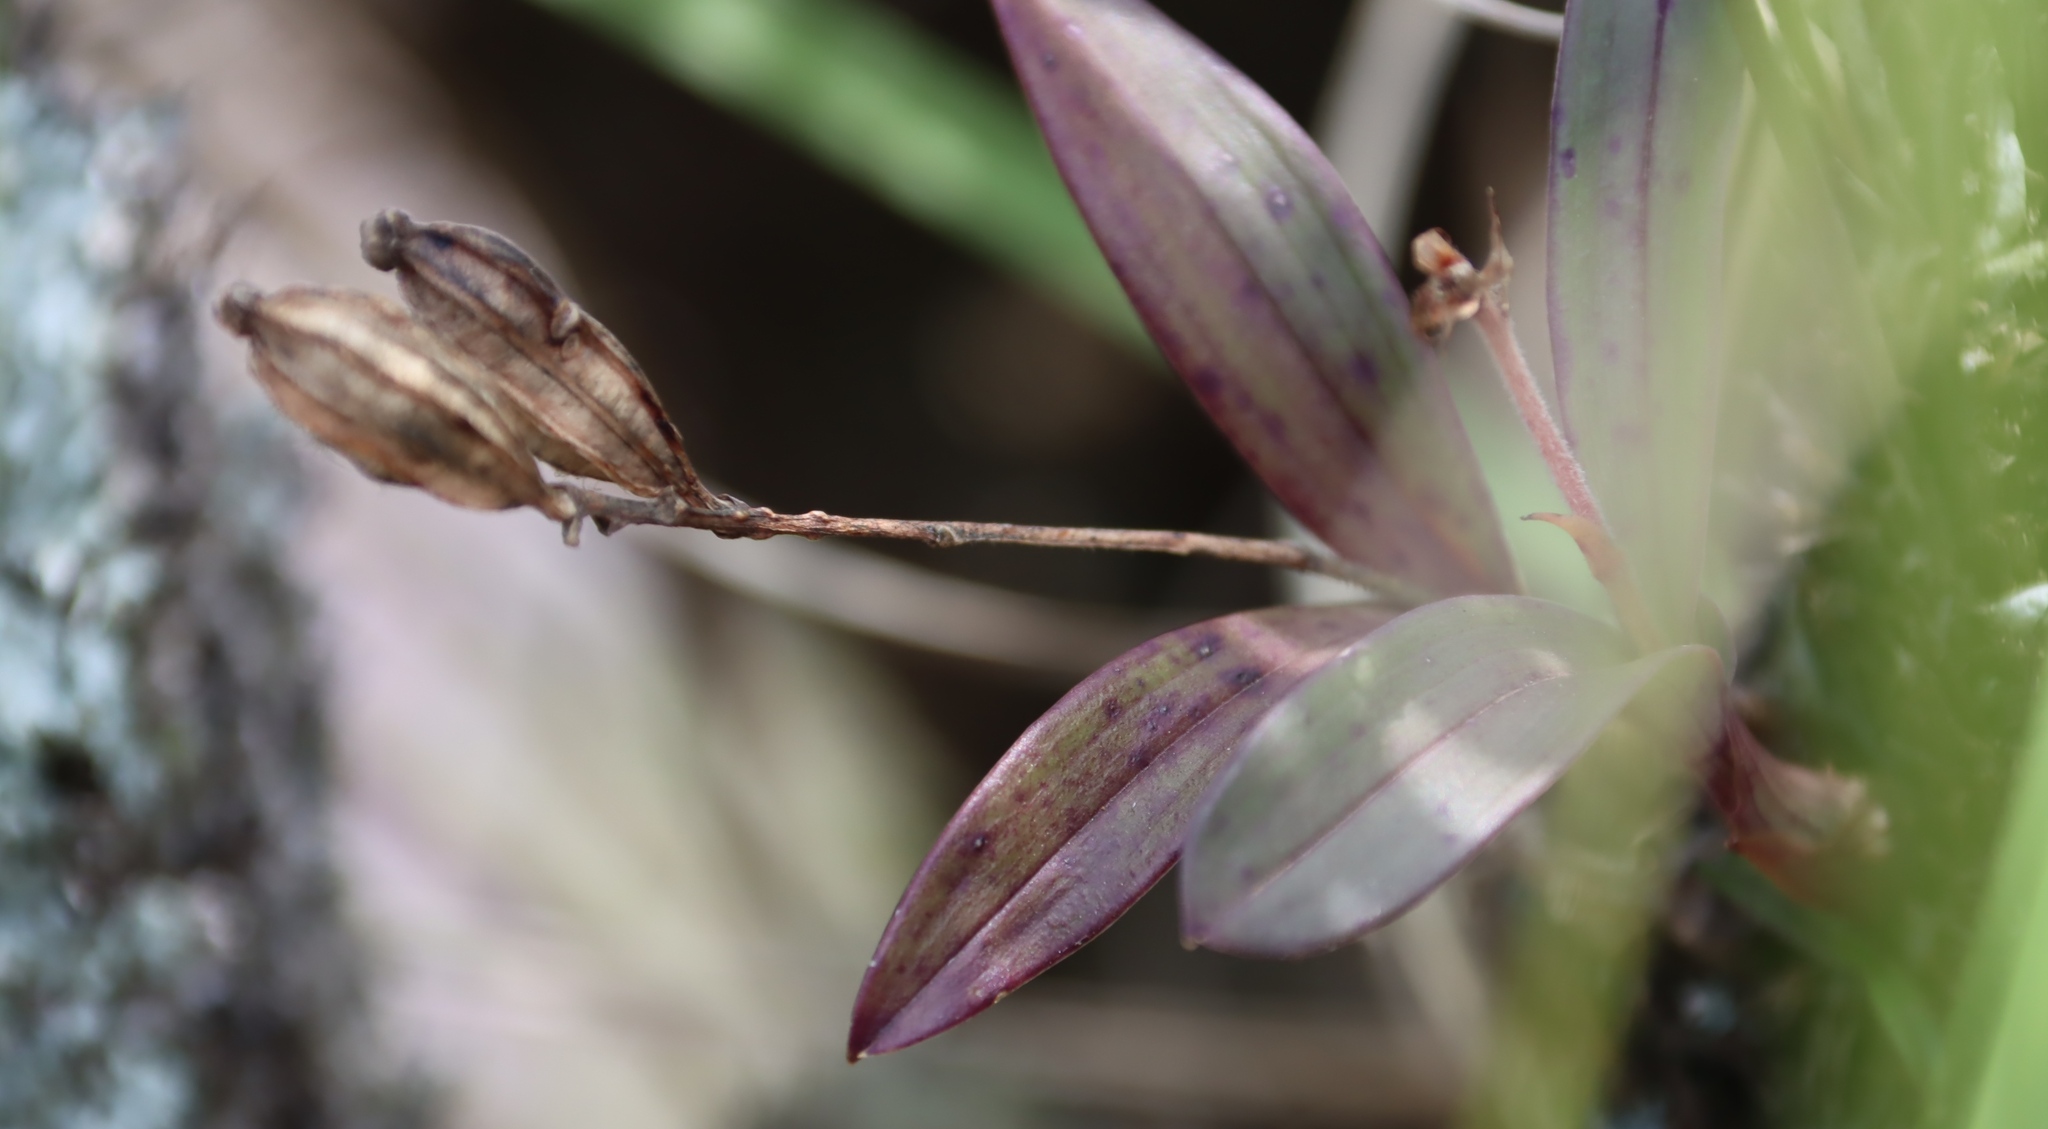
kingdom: Plantae
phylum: Tracheophyta
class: Liliopsida
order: Asparagales
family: Orchidaceae
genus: Polystachya
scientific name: Polystachya ngomensis
